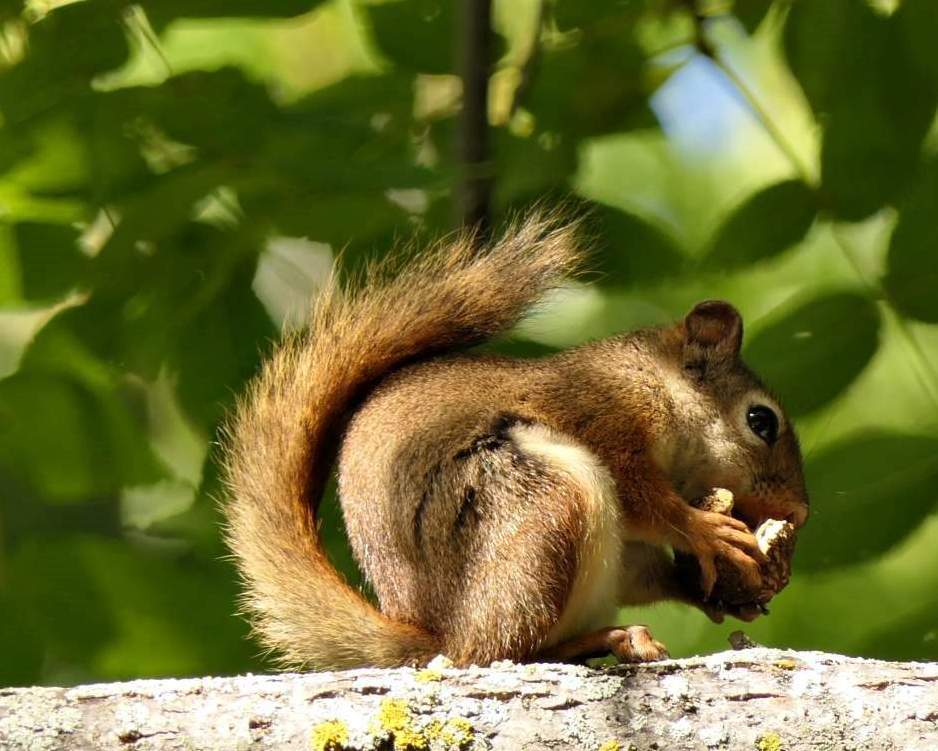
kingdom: Animalia
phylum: Chordata
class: Mammalia
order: Rodentia
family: Sciuridae
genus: Tamiasciurus
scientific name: Tamiasciurus hudsonicus
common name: Red squirrel
